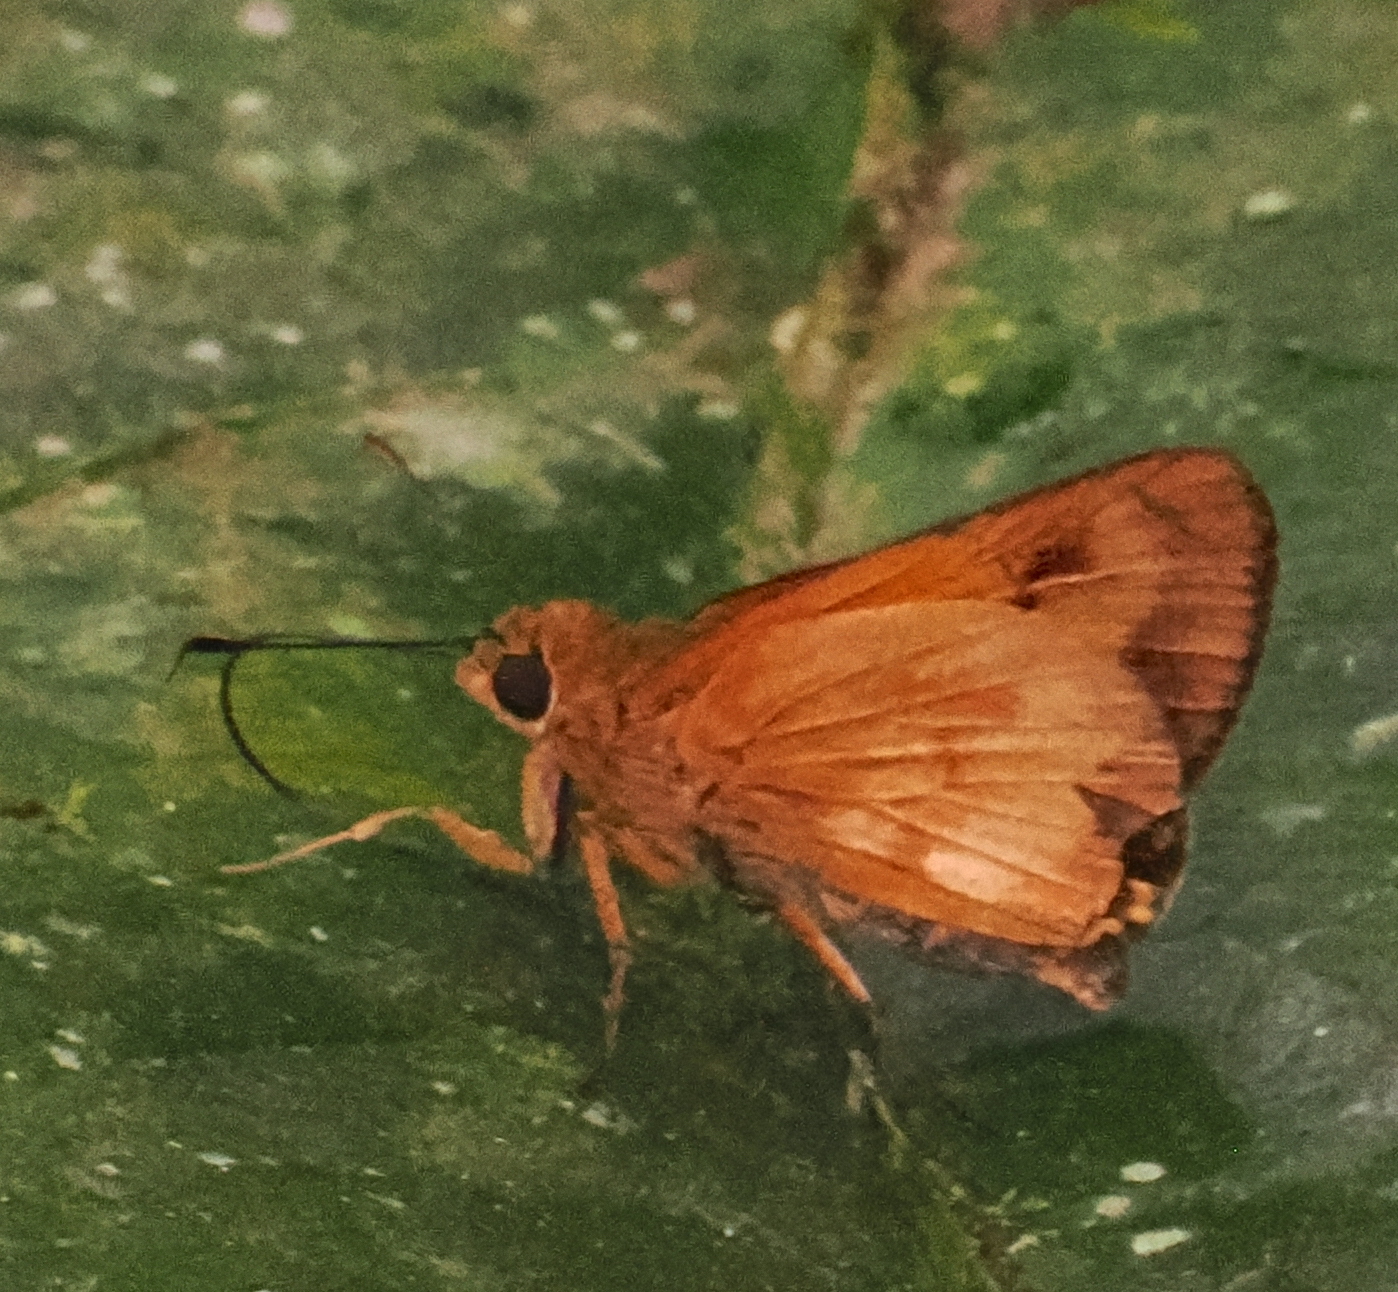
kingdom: Animalia
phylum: Arthropoda
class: Insecta
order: Lepidoptera
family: Hesperiidae
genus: Anthoptus
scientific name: Anthoptus epictetus
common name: Trailside skipper
